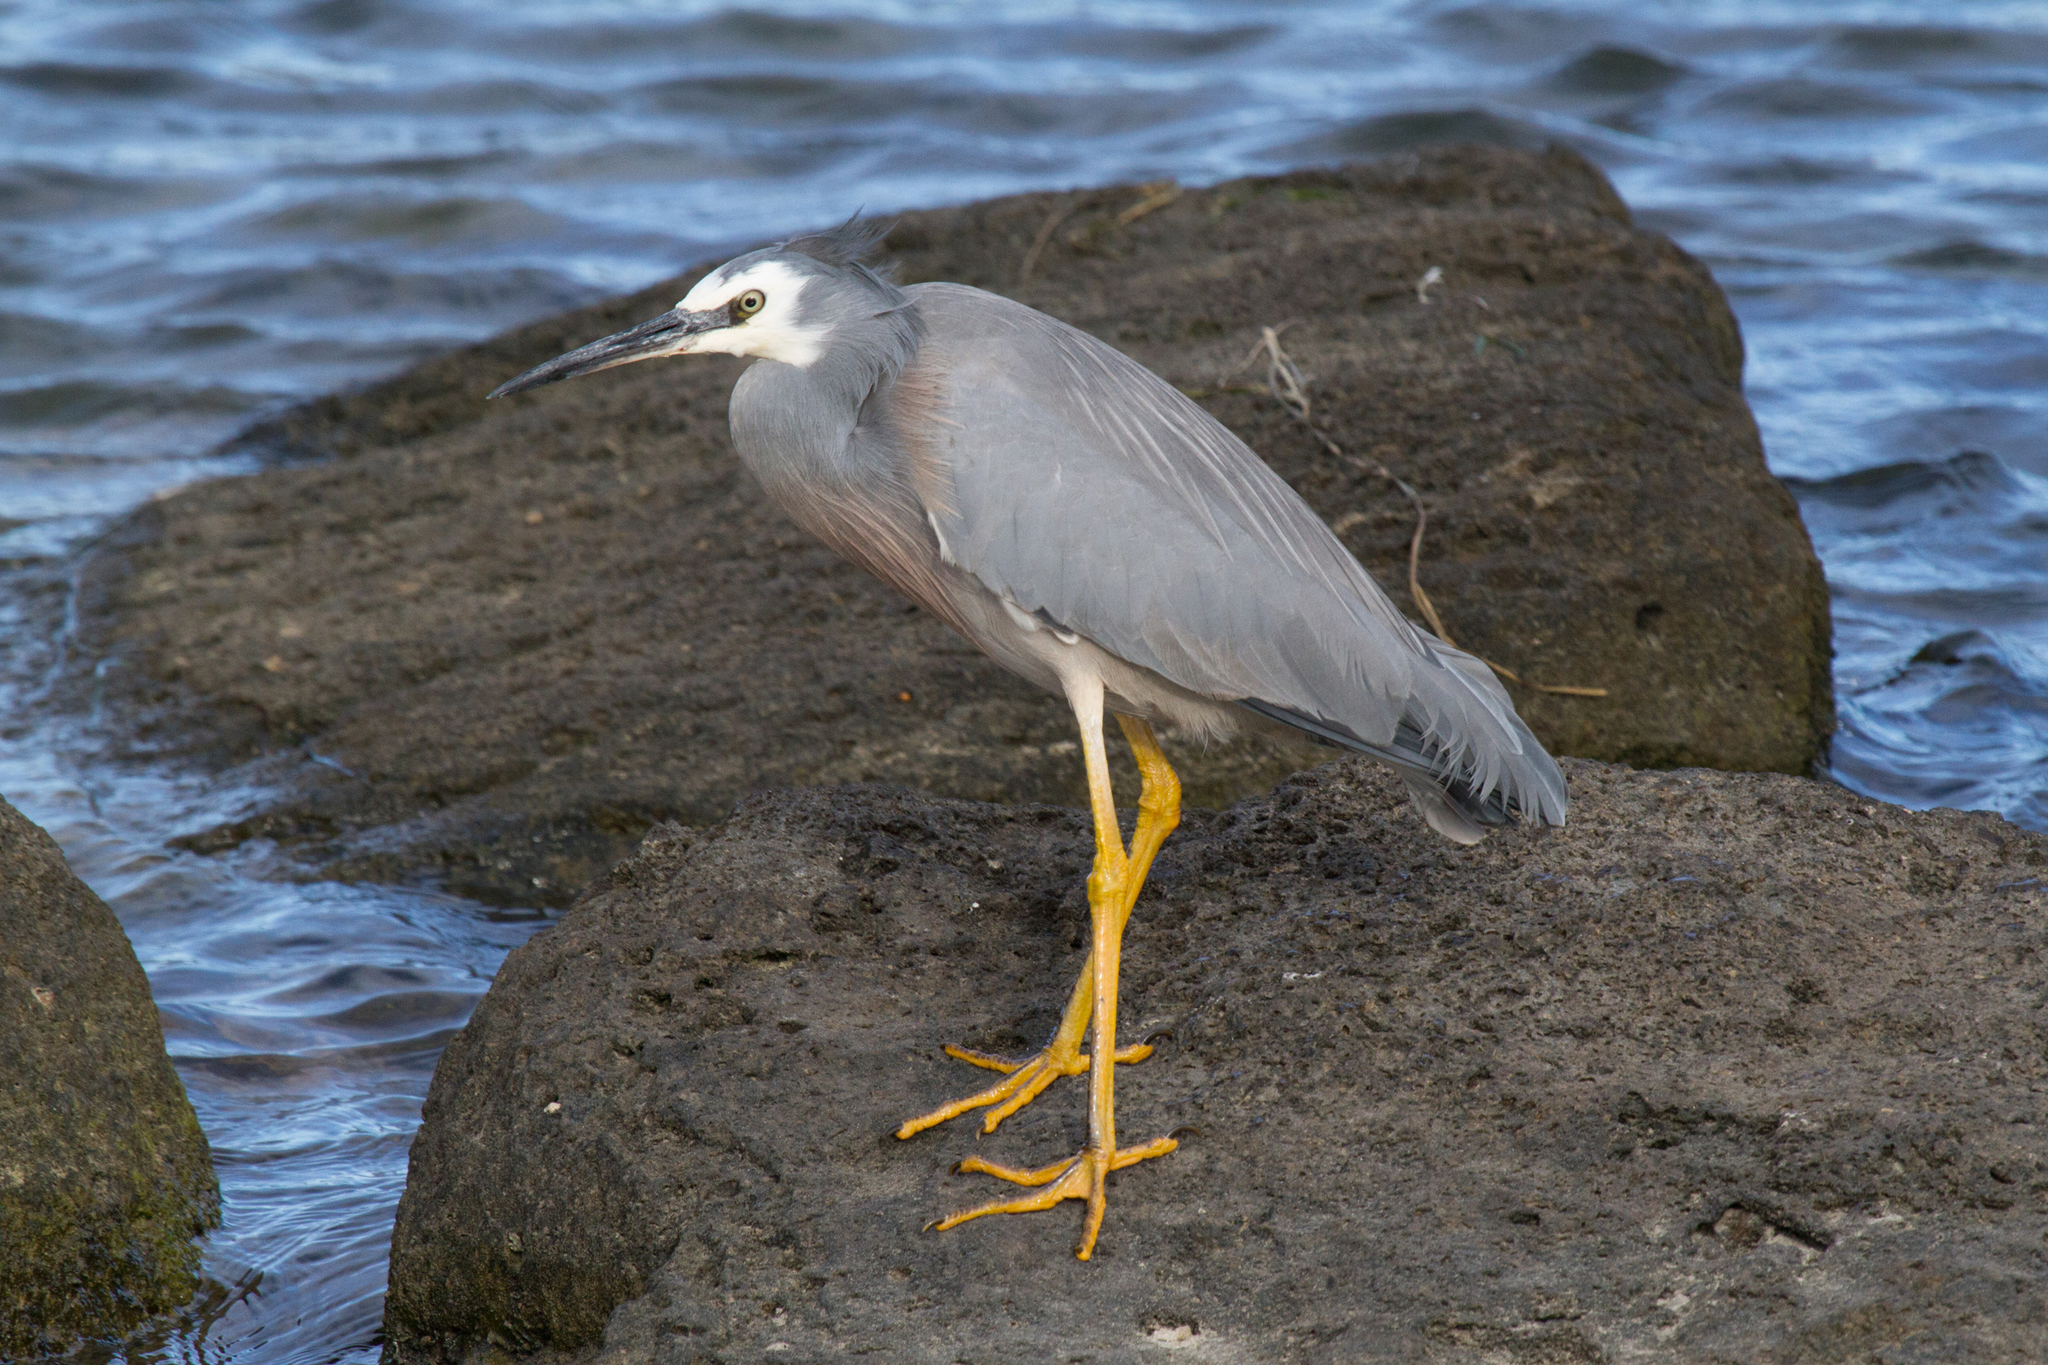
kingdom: Animalia
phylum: Chordata
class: Aves
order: Pelecaniformes
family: Ardeidae
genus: Egretta
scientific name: Egretta novaehollandiae
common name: White-faced heron
